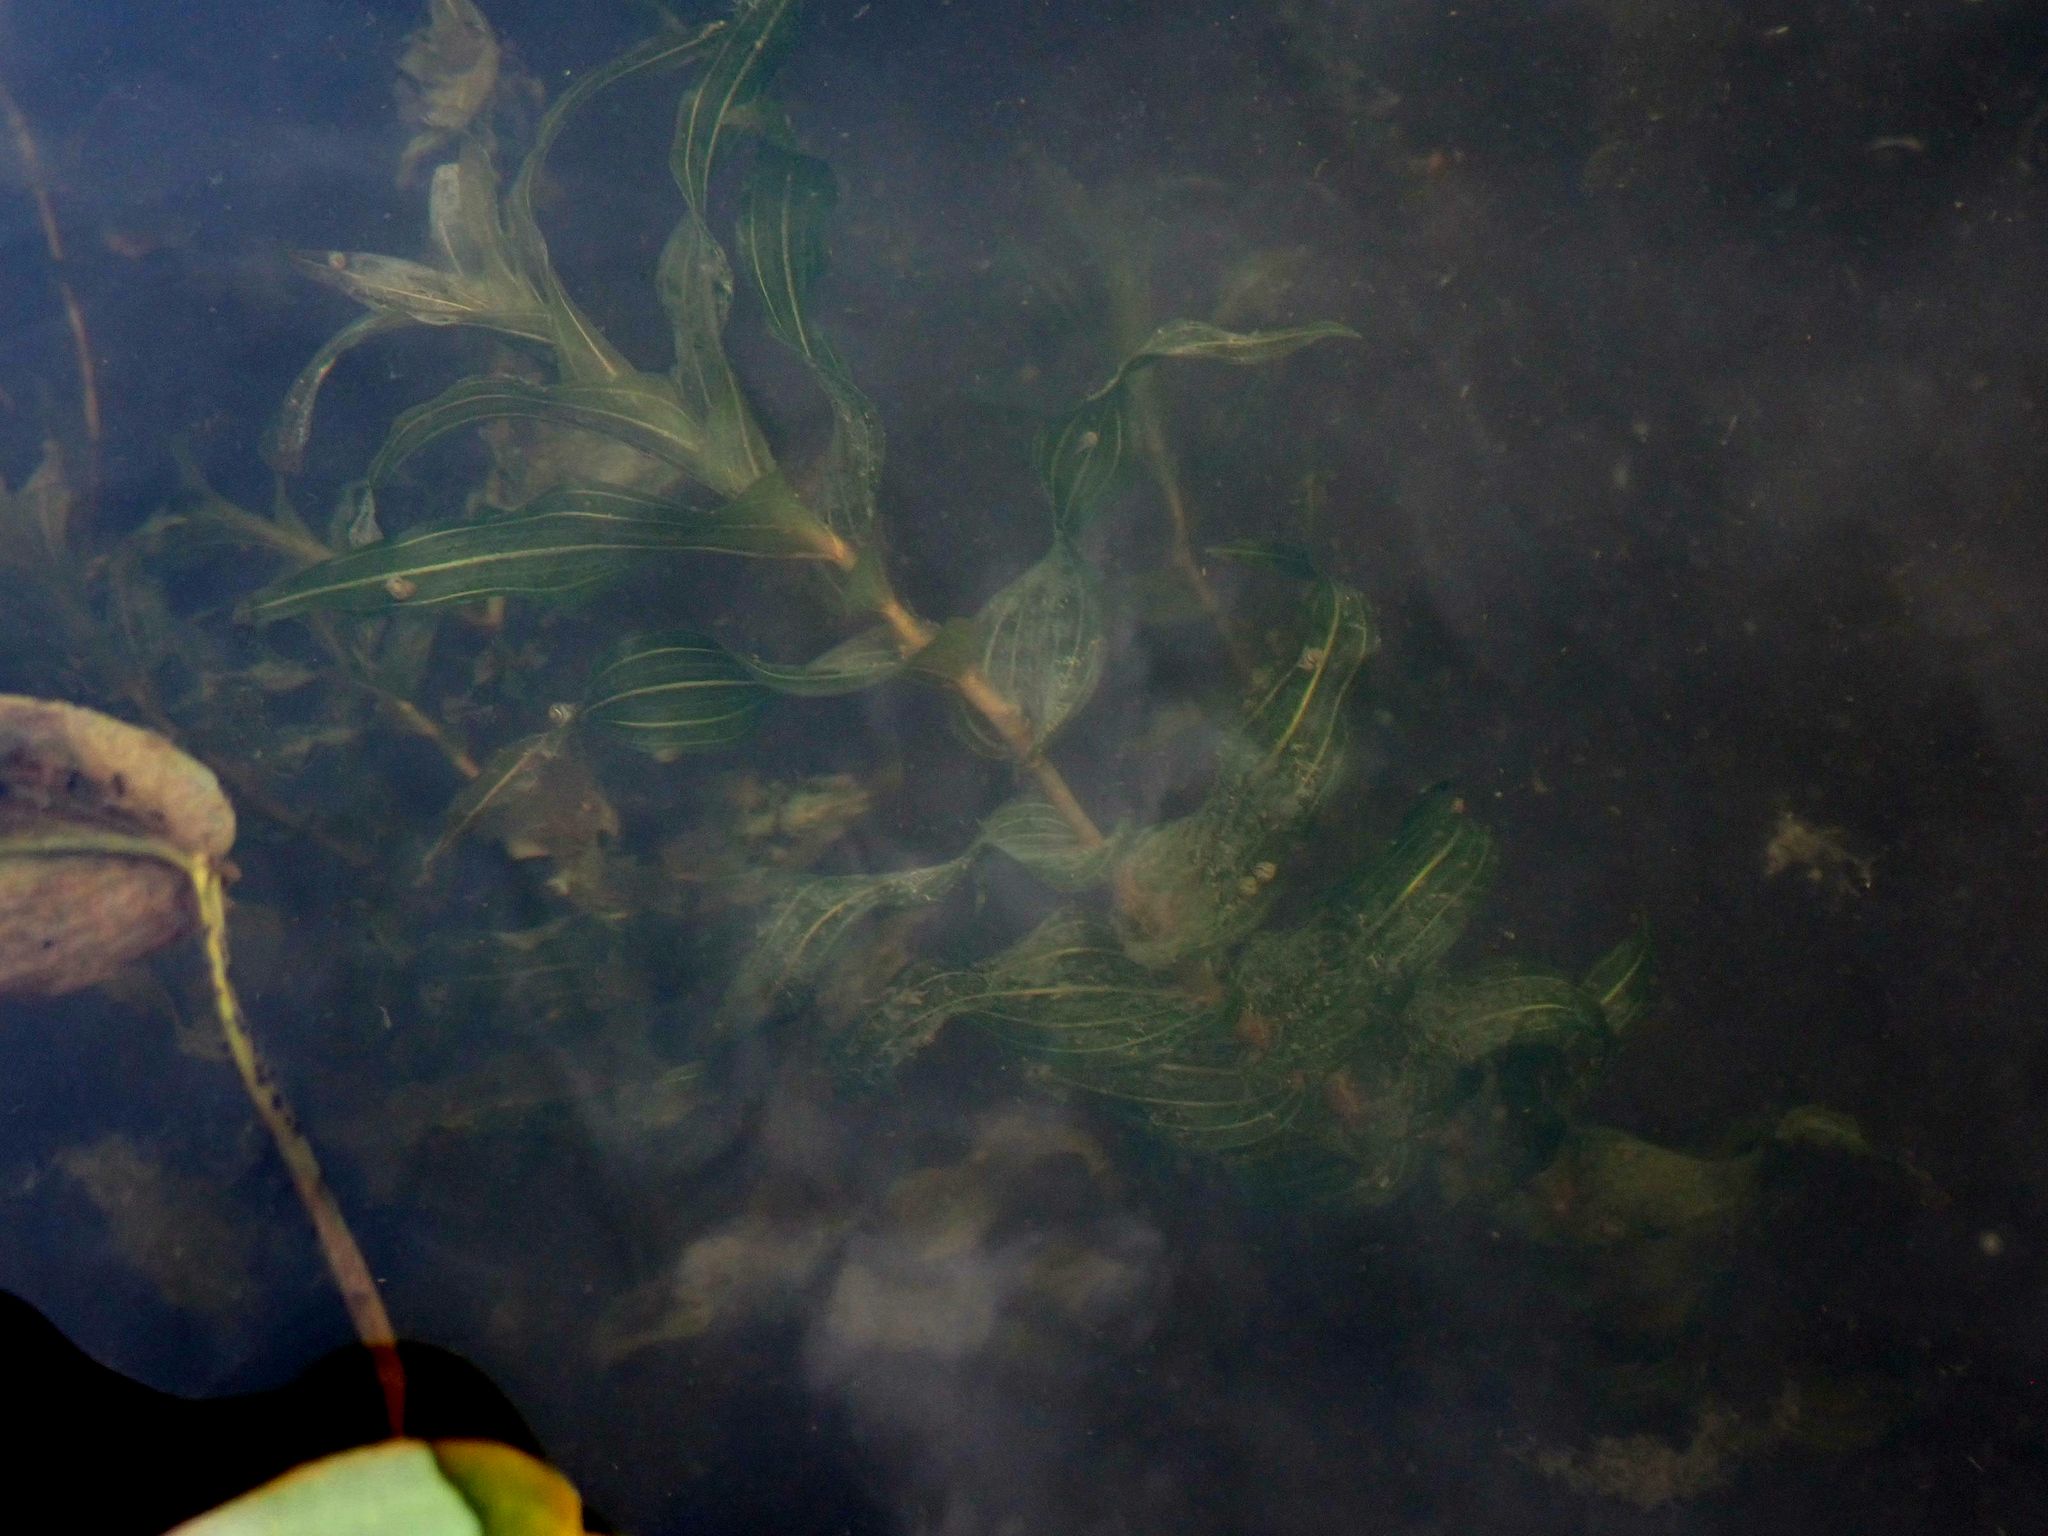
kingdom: Plantae
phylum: Tracheophyta
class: Liliopsida
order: Alismatales
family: Potamogetonaceae
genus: Potamogeton
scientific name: Potamogeton richardsonii
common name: Richardson's pondweed
